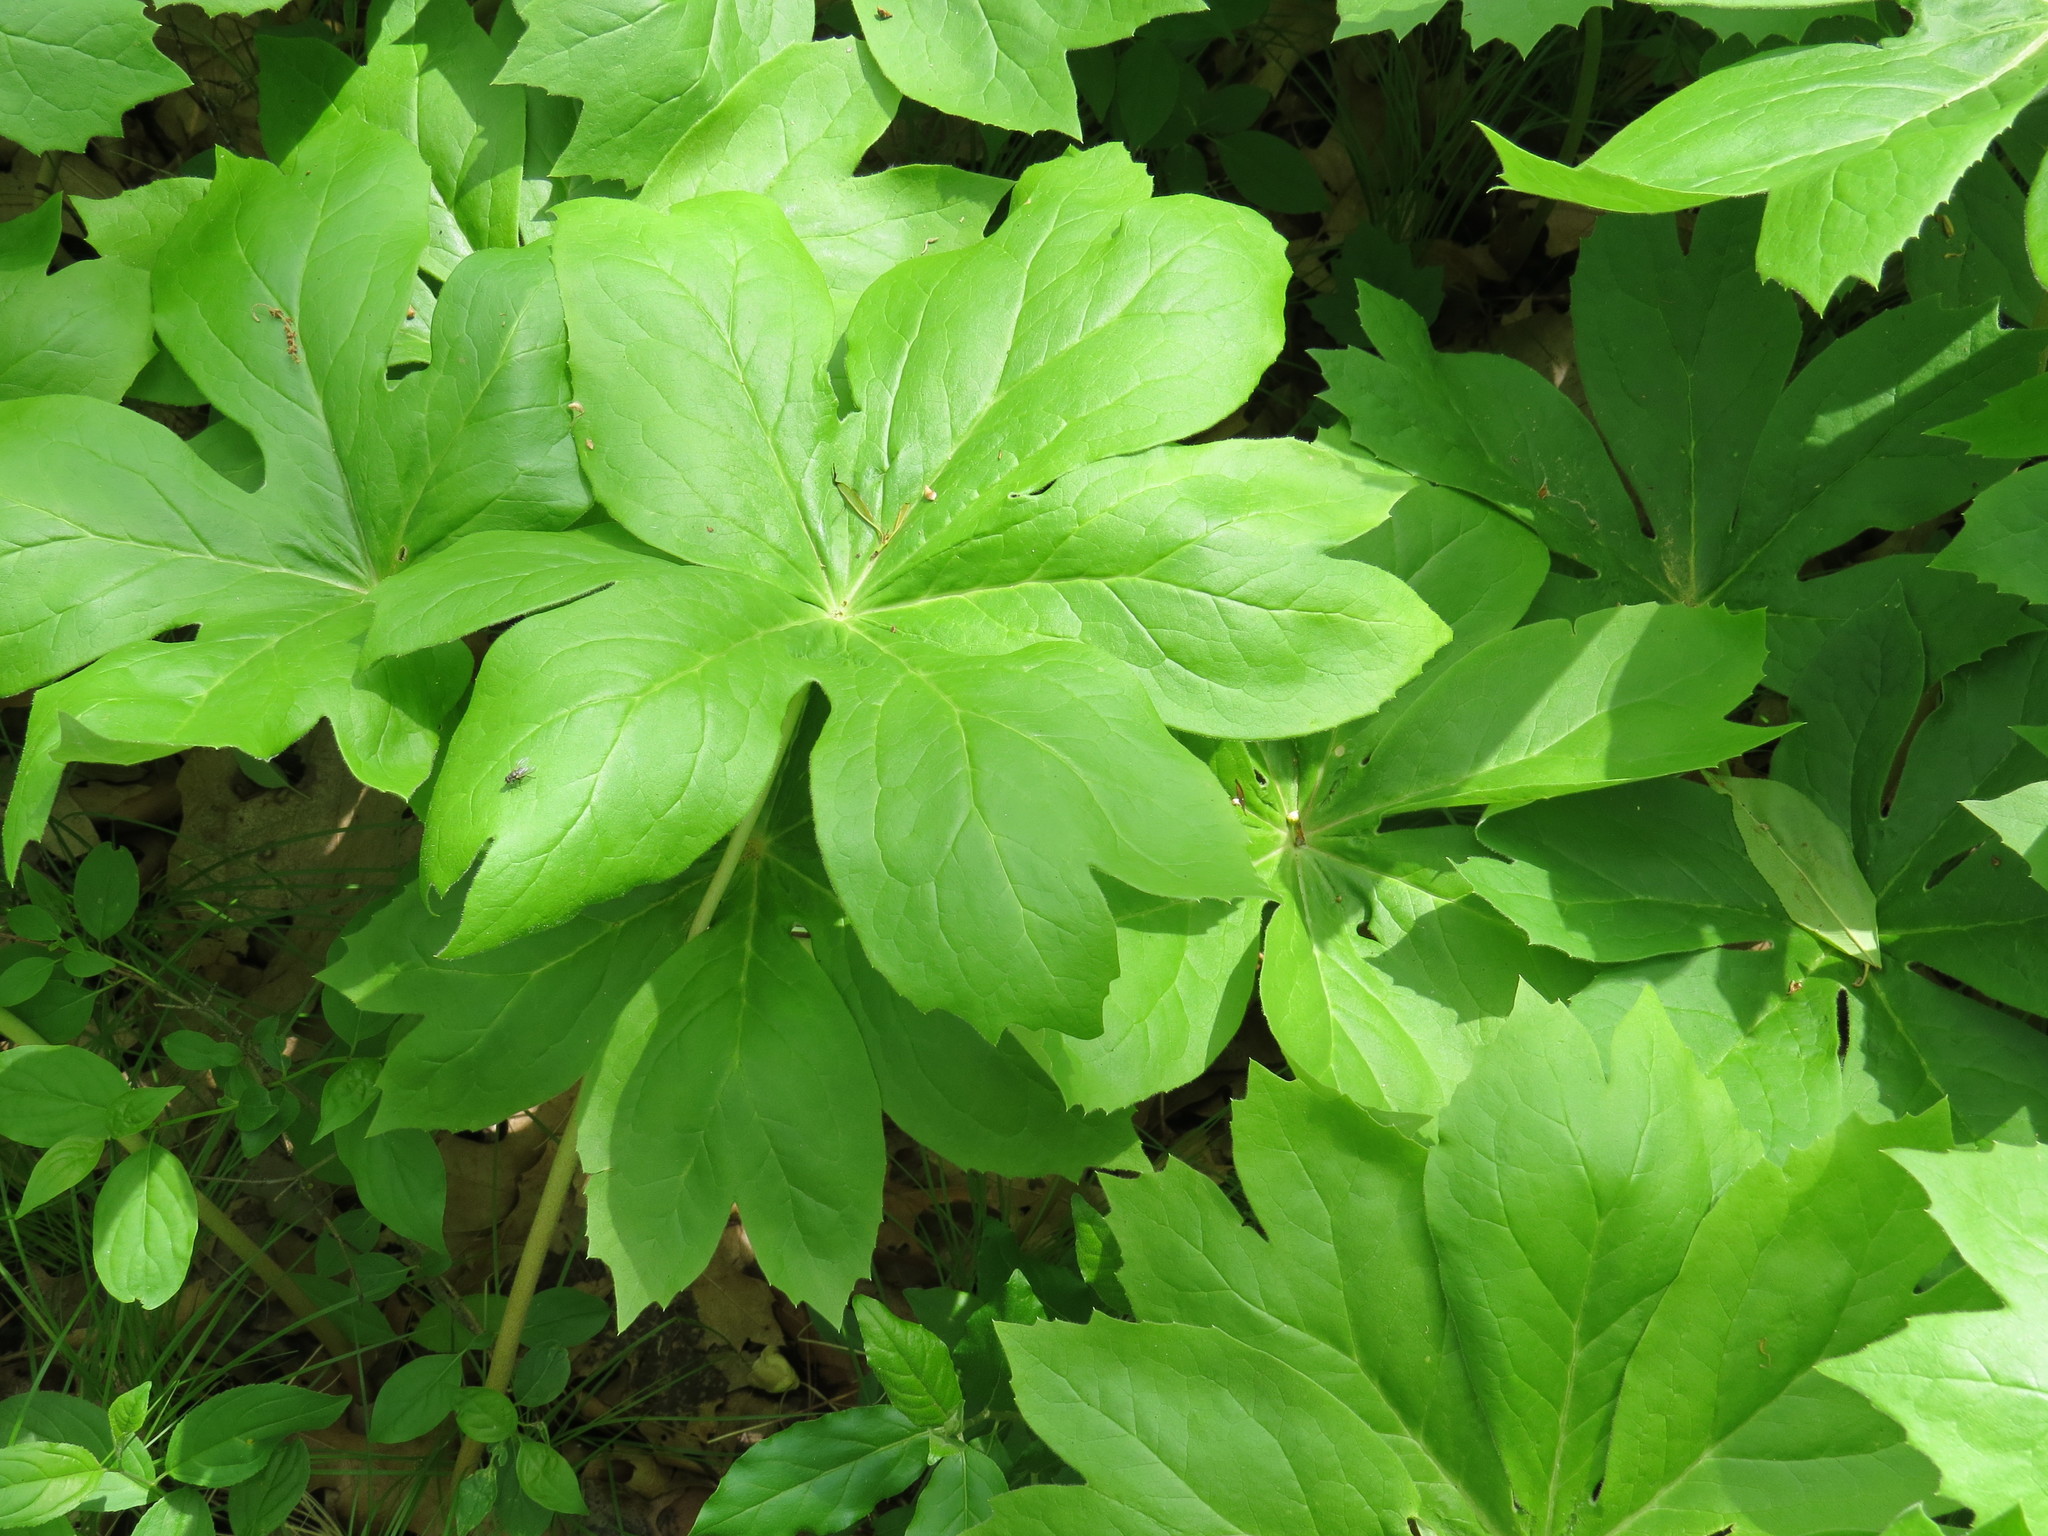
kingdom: Plantae
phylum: Tracheophyta
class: Magnoliopsida
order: Ranunculales
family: Berberidaceae
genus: Podophyllum
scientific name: Podophyllum peltatum
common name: Wild mandrake
